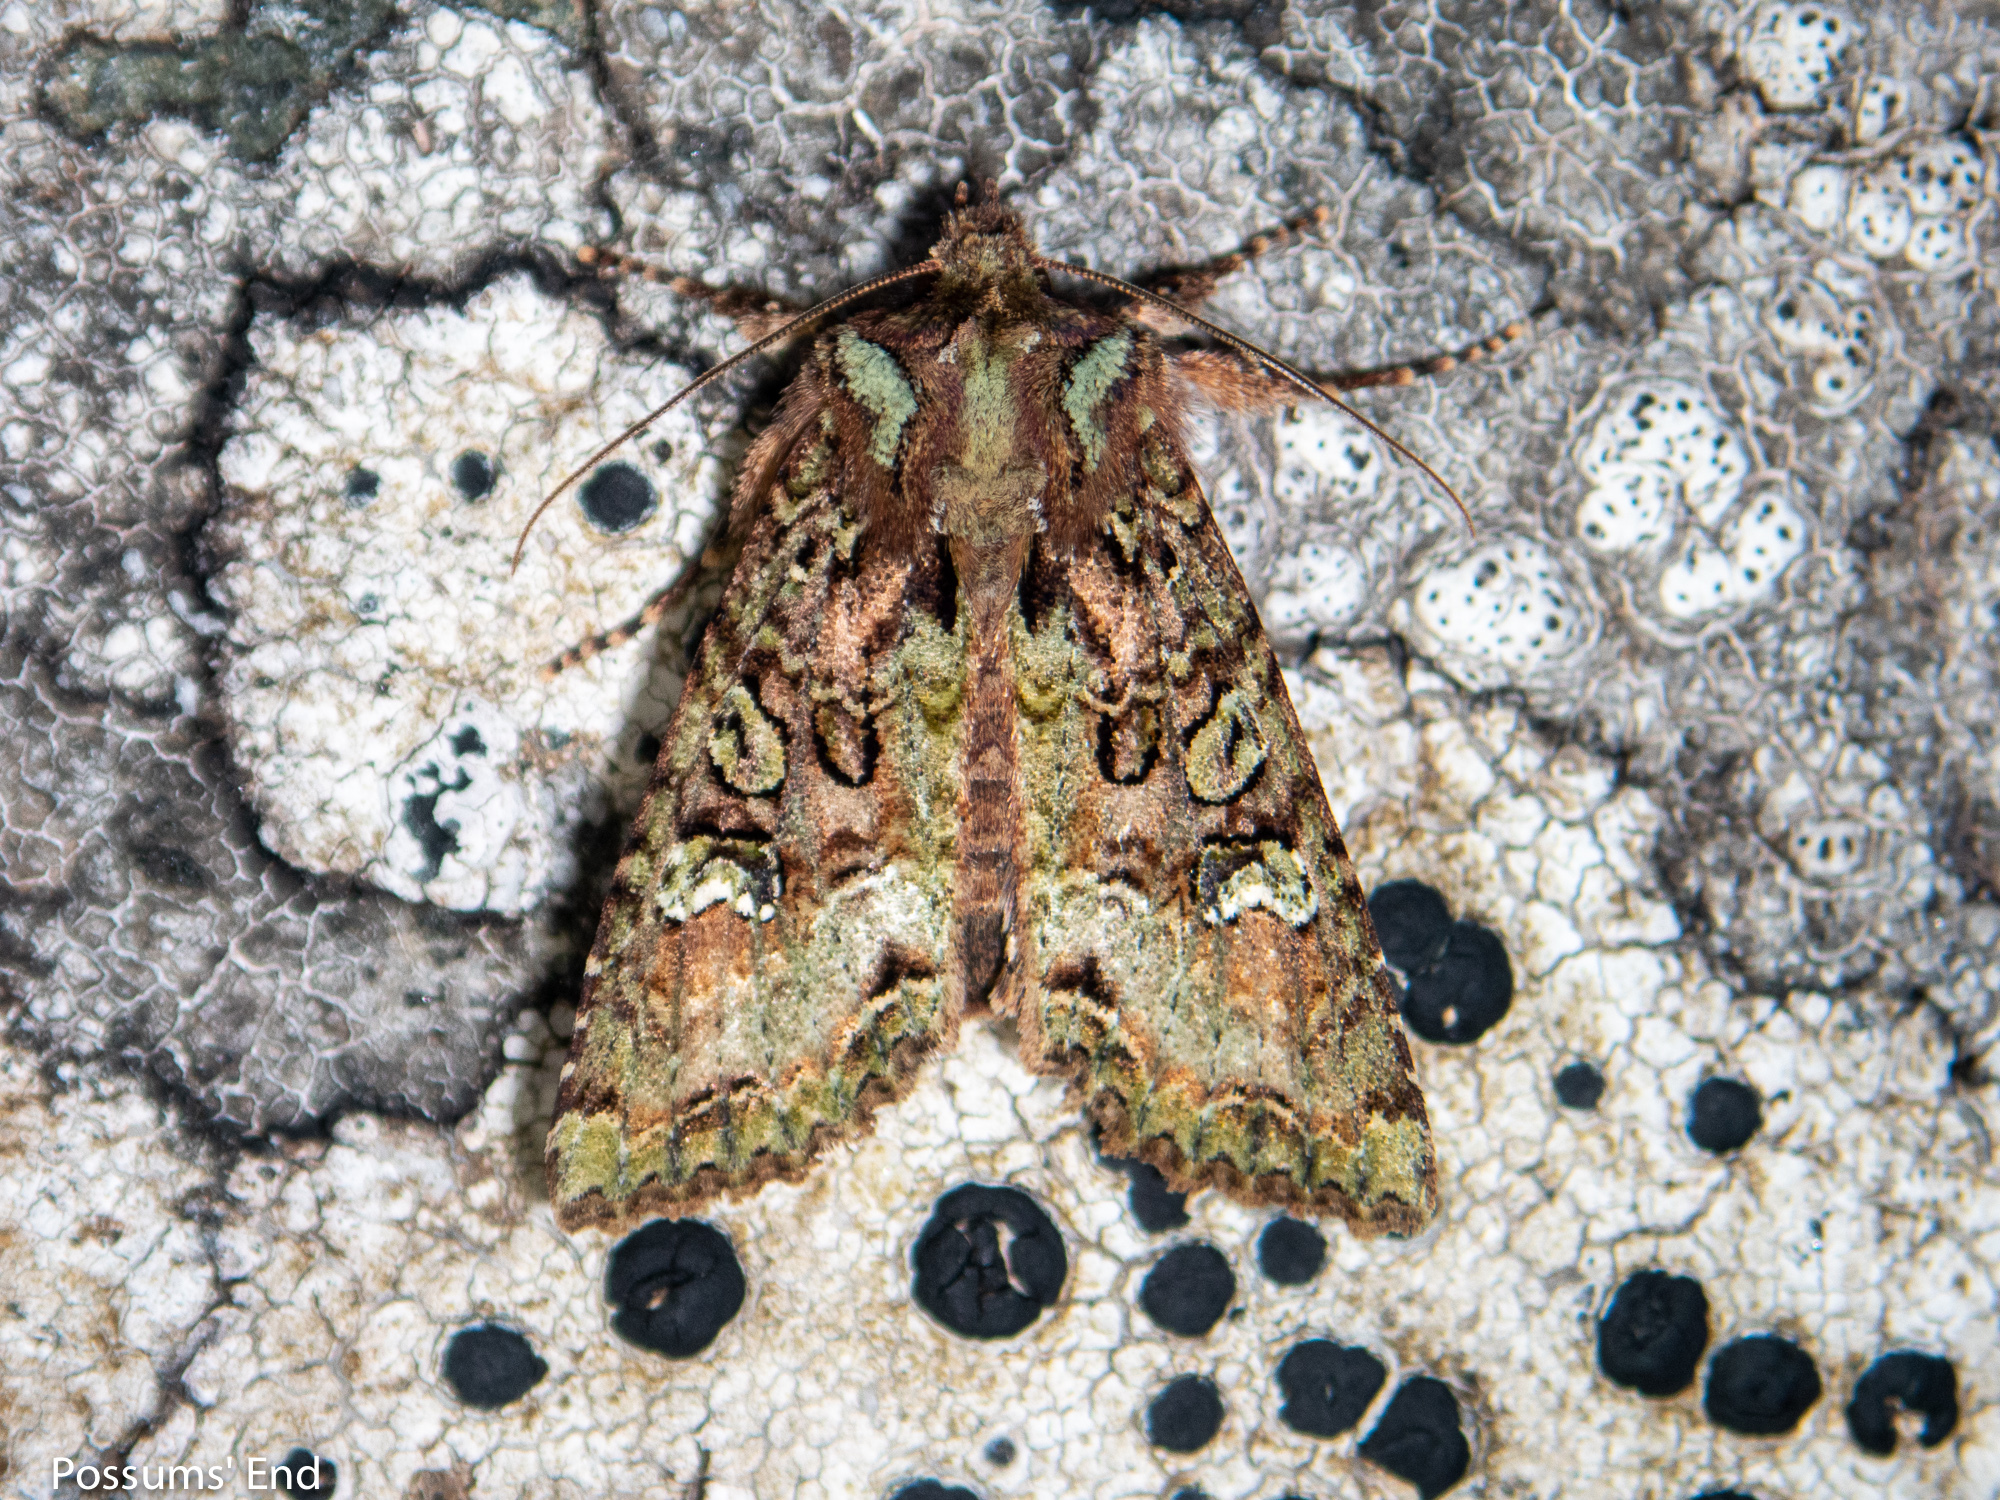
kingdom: Animalia
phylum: Arthropoda
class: Insecta
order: Lepidoptera
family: Noctuidae
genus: Meterana
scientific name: Meterana
